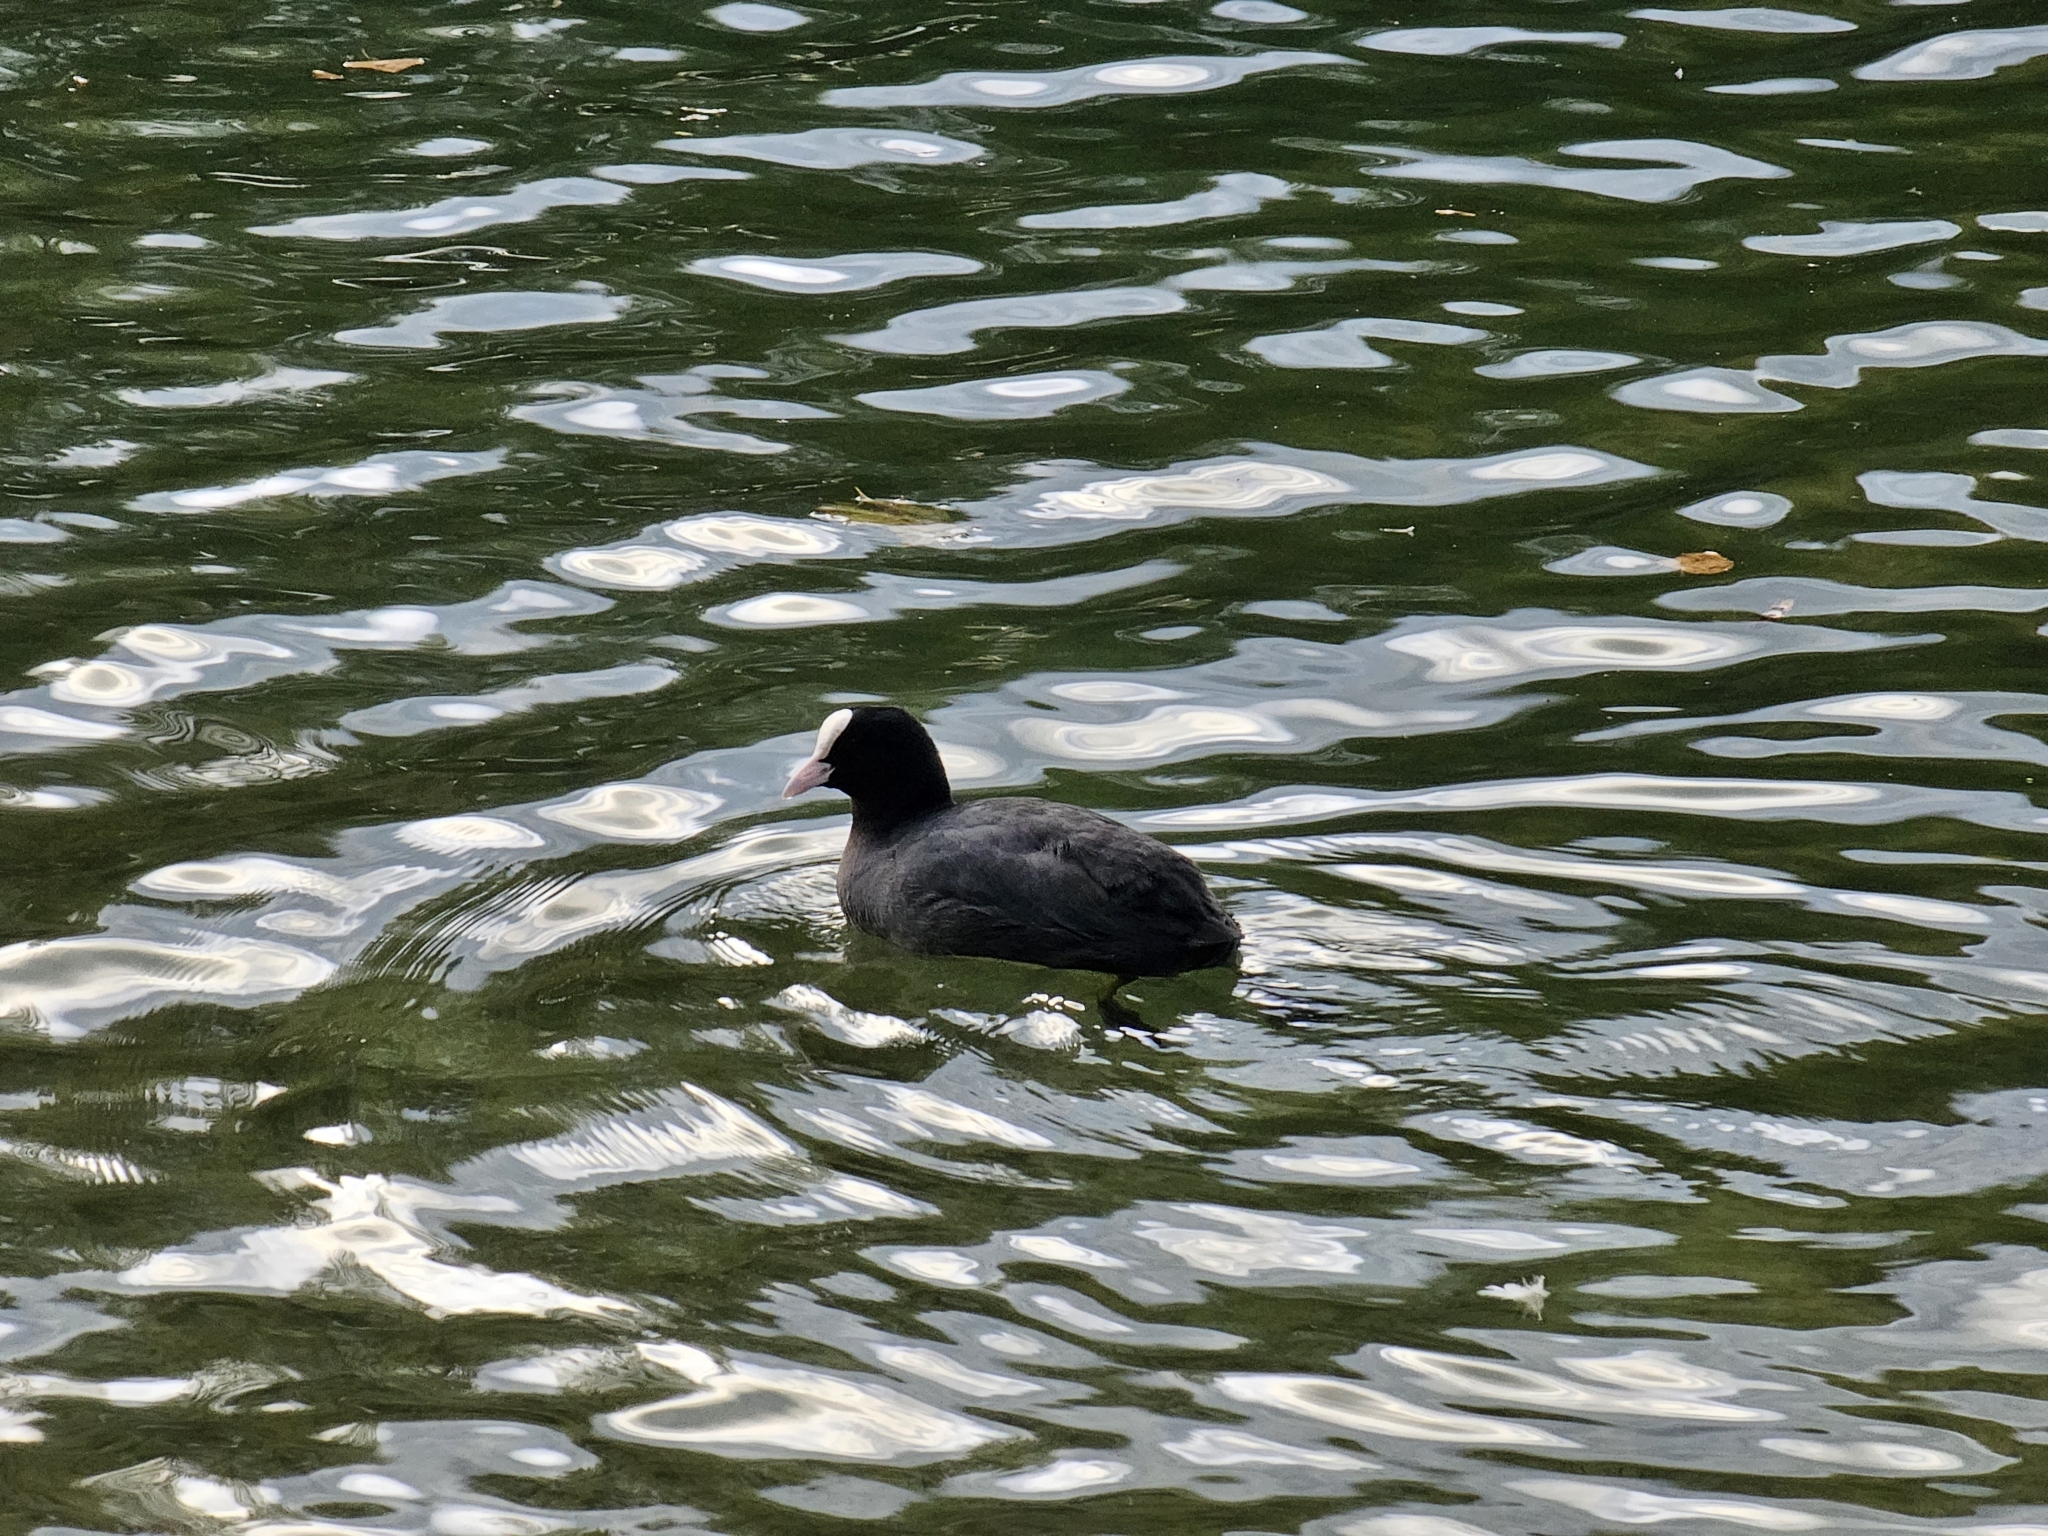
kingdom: Animalia
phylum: Chordata
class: Aves
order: Gruiformes
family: Rallidae
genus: Fulica
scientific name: Fulica atra
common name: Eurasian coot
